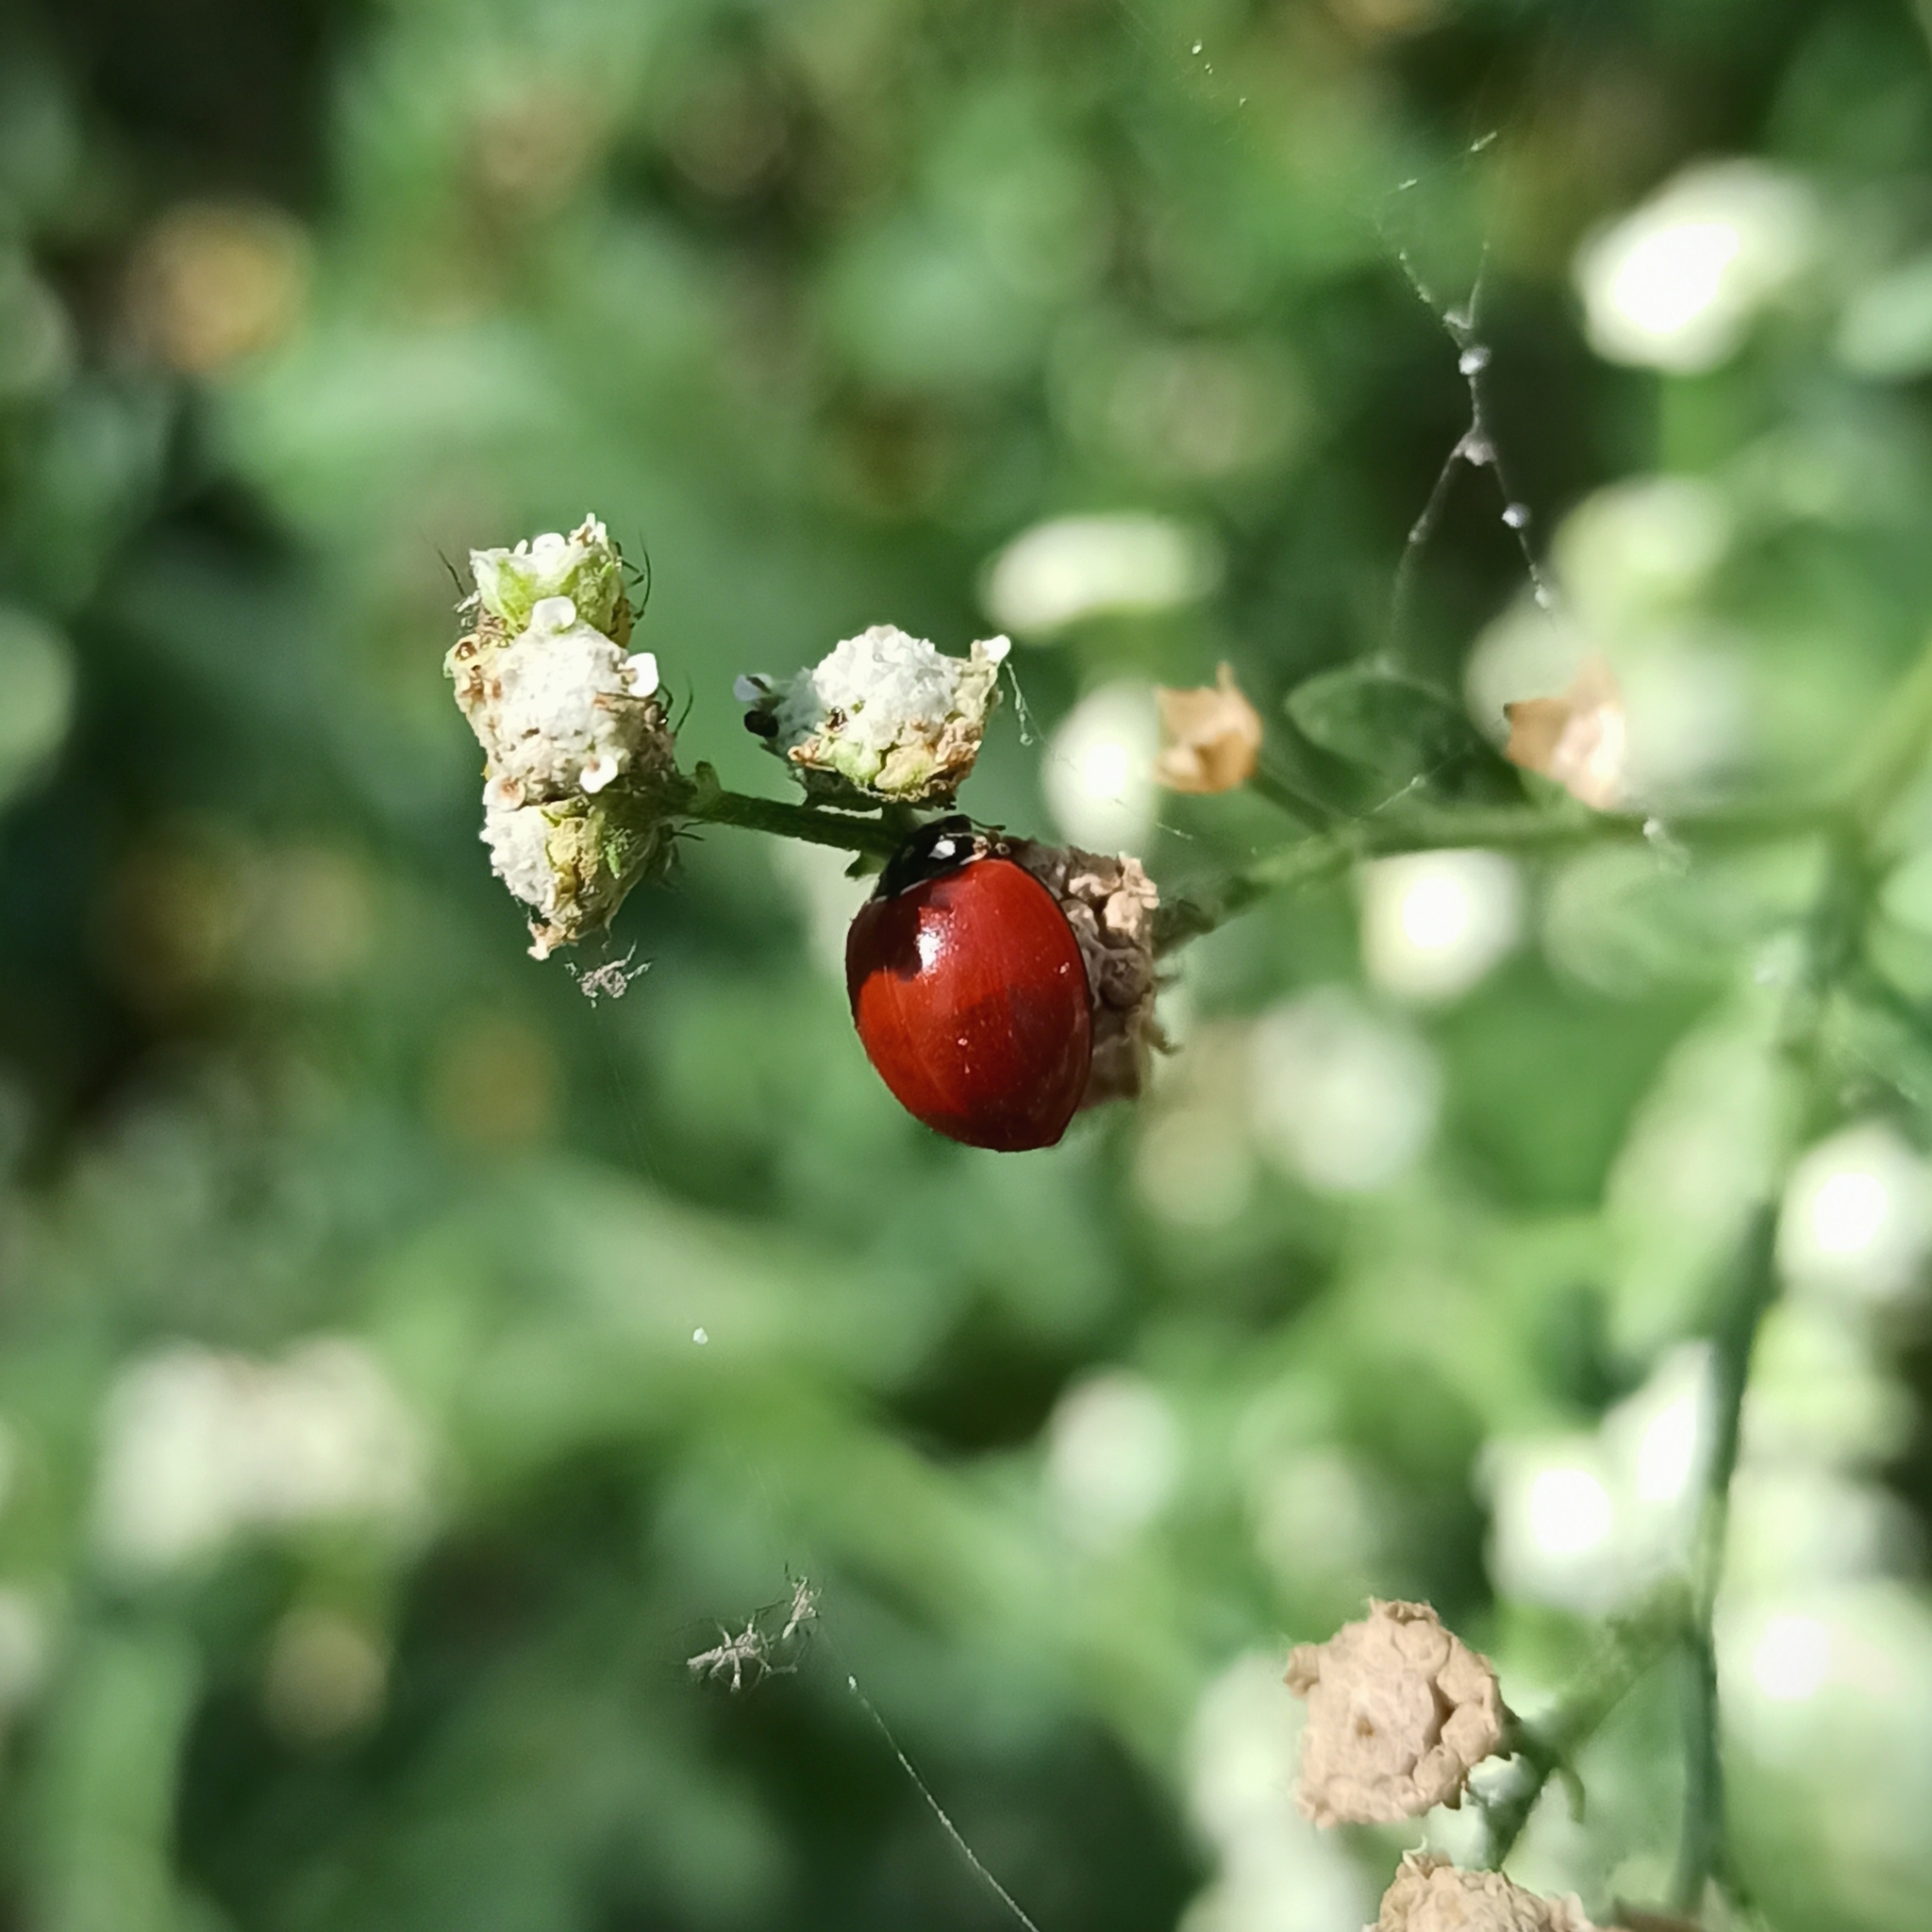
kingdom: Animalia
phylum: Arthropoda
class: Insecta
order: Coleoptera
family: Coccinellidae
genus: Cycloneda
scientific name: Cycloneda sanguinea
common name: Ladybird beetle
